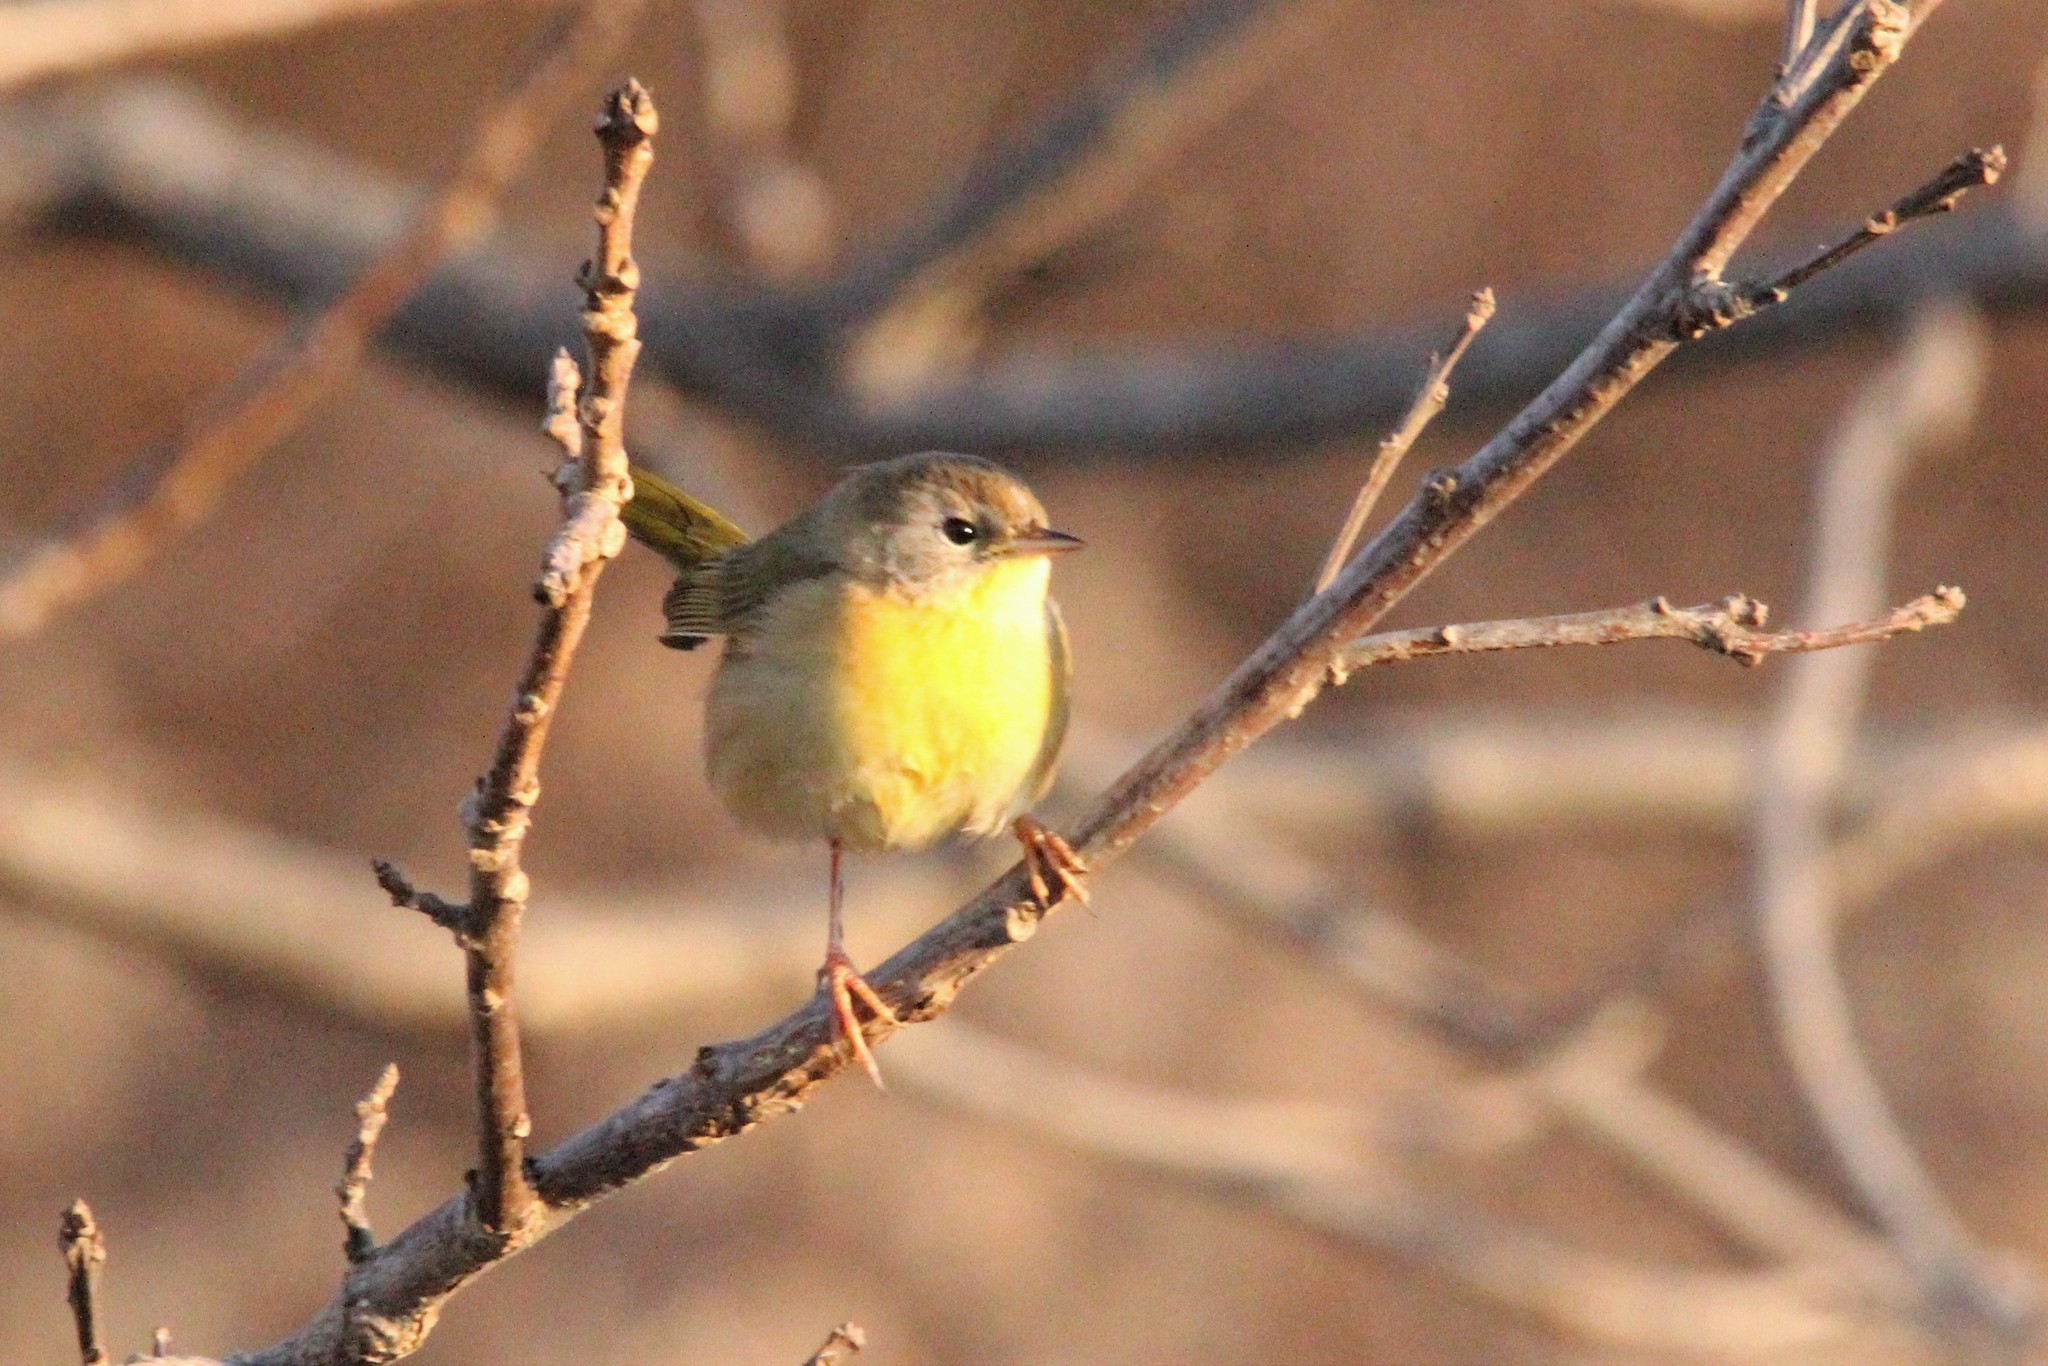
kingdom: Animalia
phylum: Chordata
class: Aves
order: Passeriformes
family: Parulidae
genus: Geothlypis
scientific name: Geothlypis trichas
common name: Common yellowthroat
